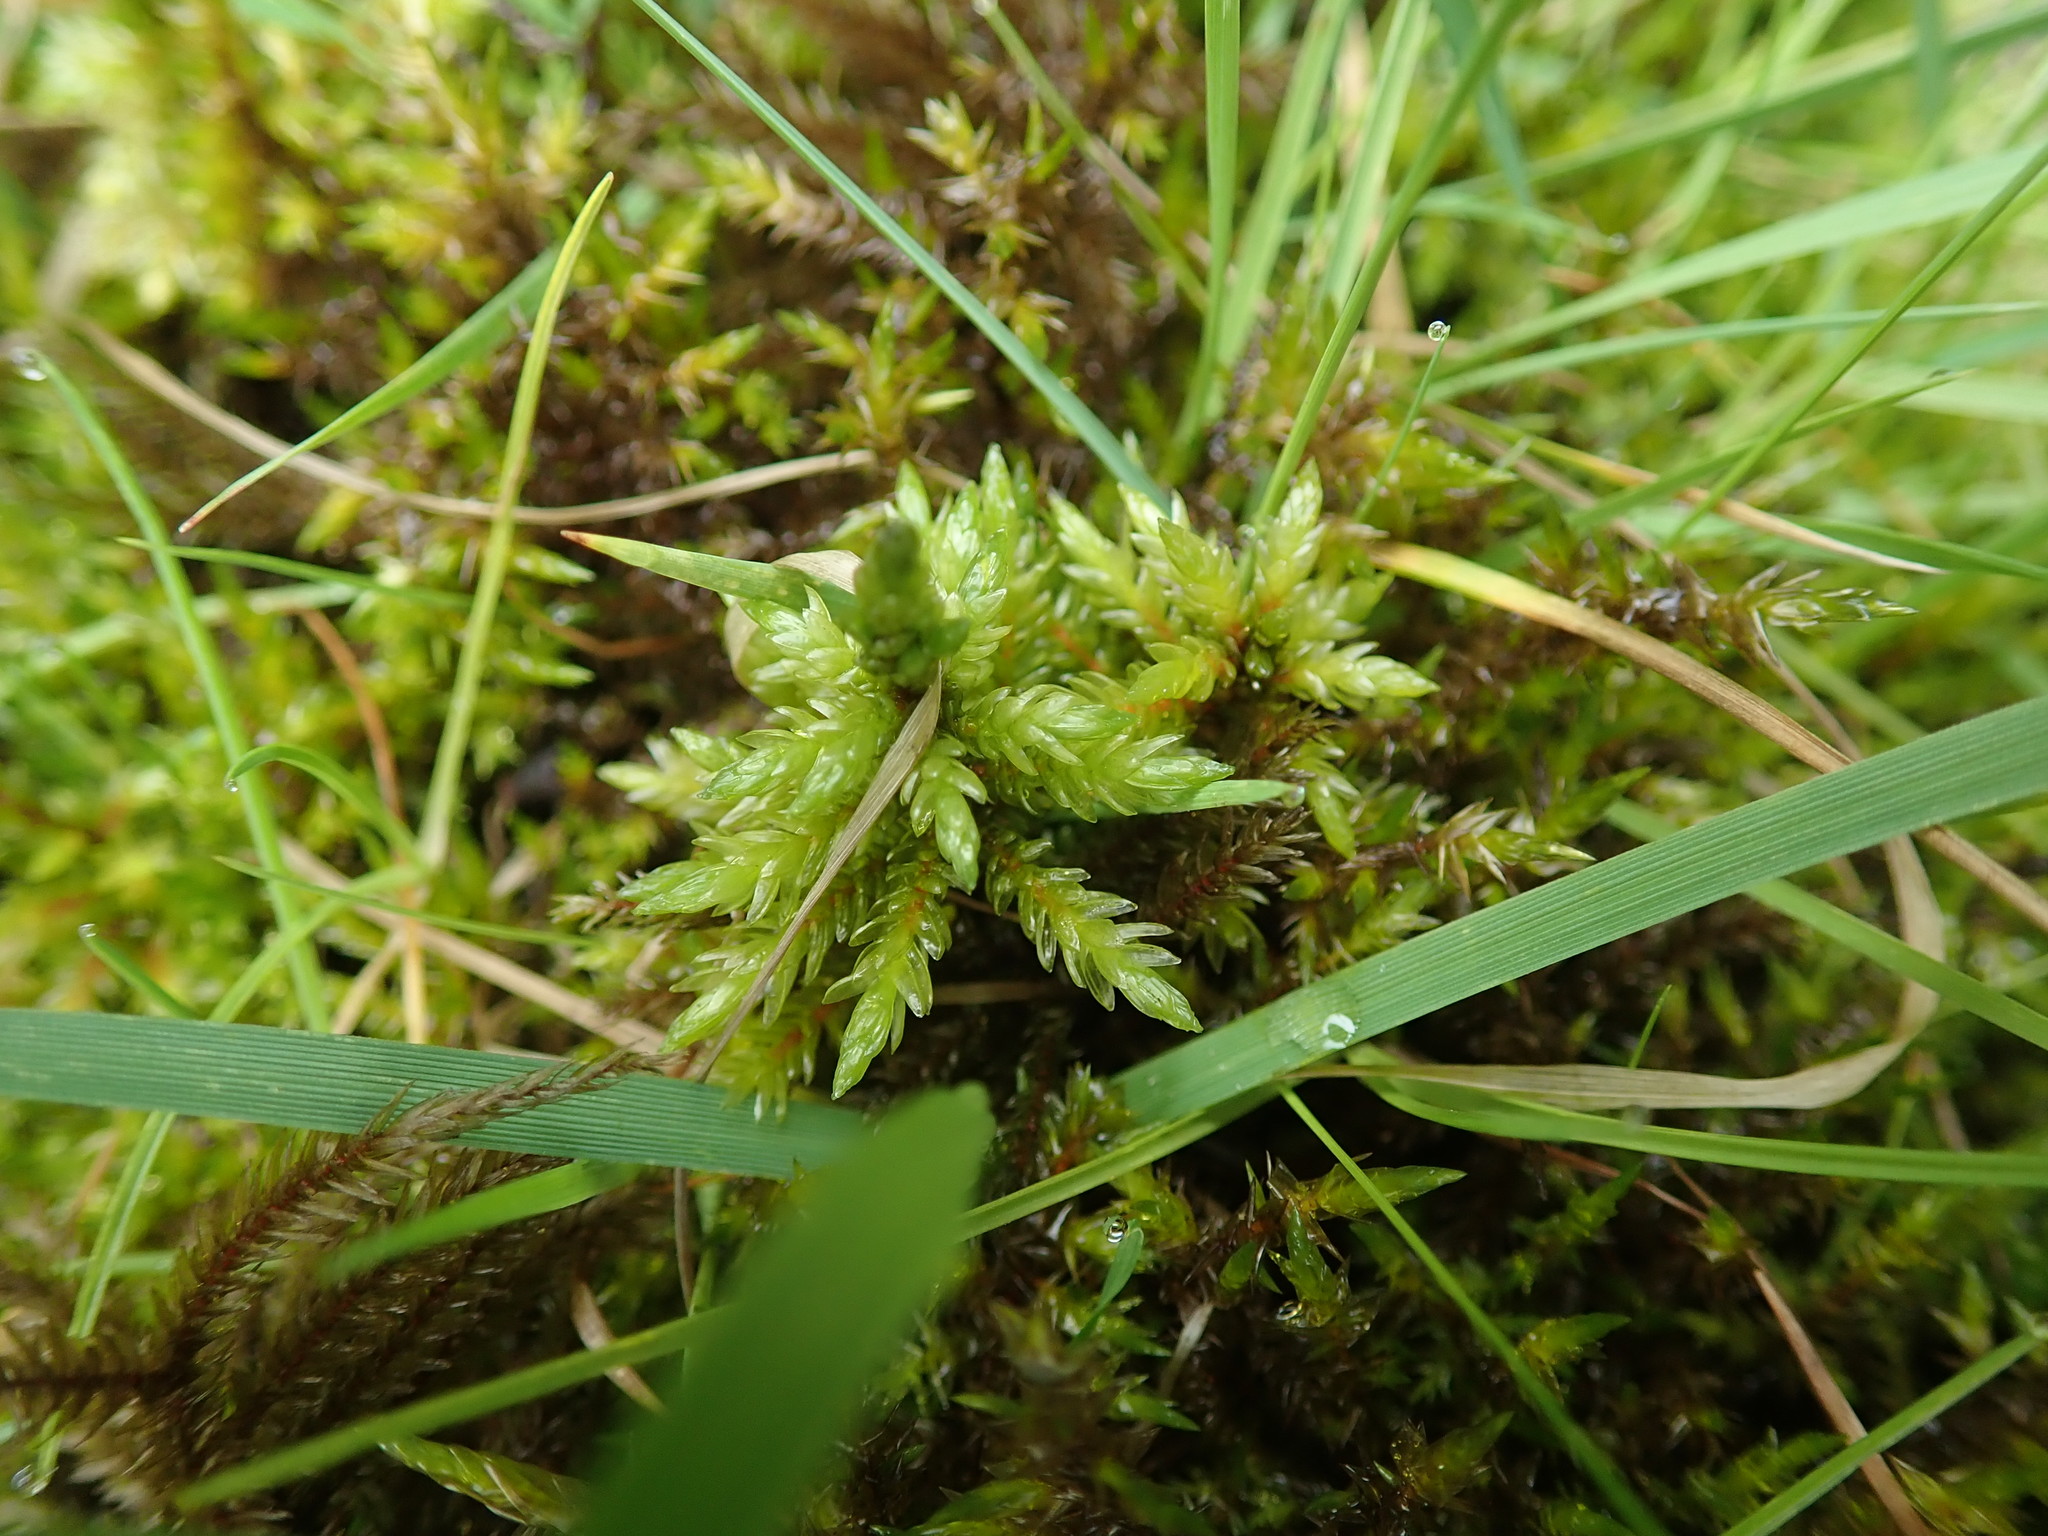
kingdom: Plantae
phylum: Bryophyta
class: Bryopsida
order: Hypnales
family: Climaciaceae
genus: Climacium
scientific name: Climacium dendroides
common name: Northern tree moss
